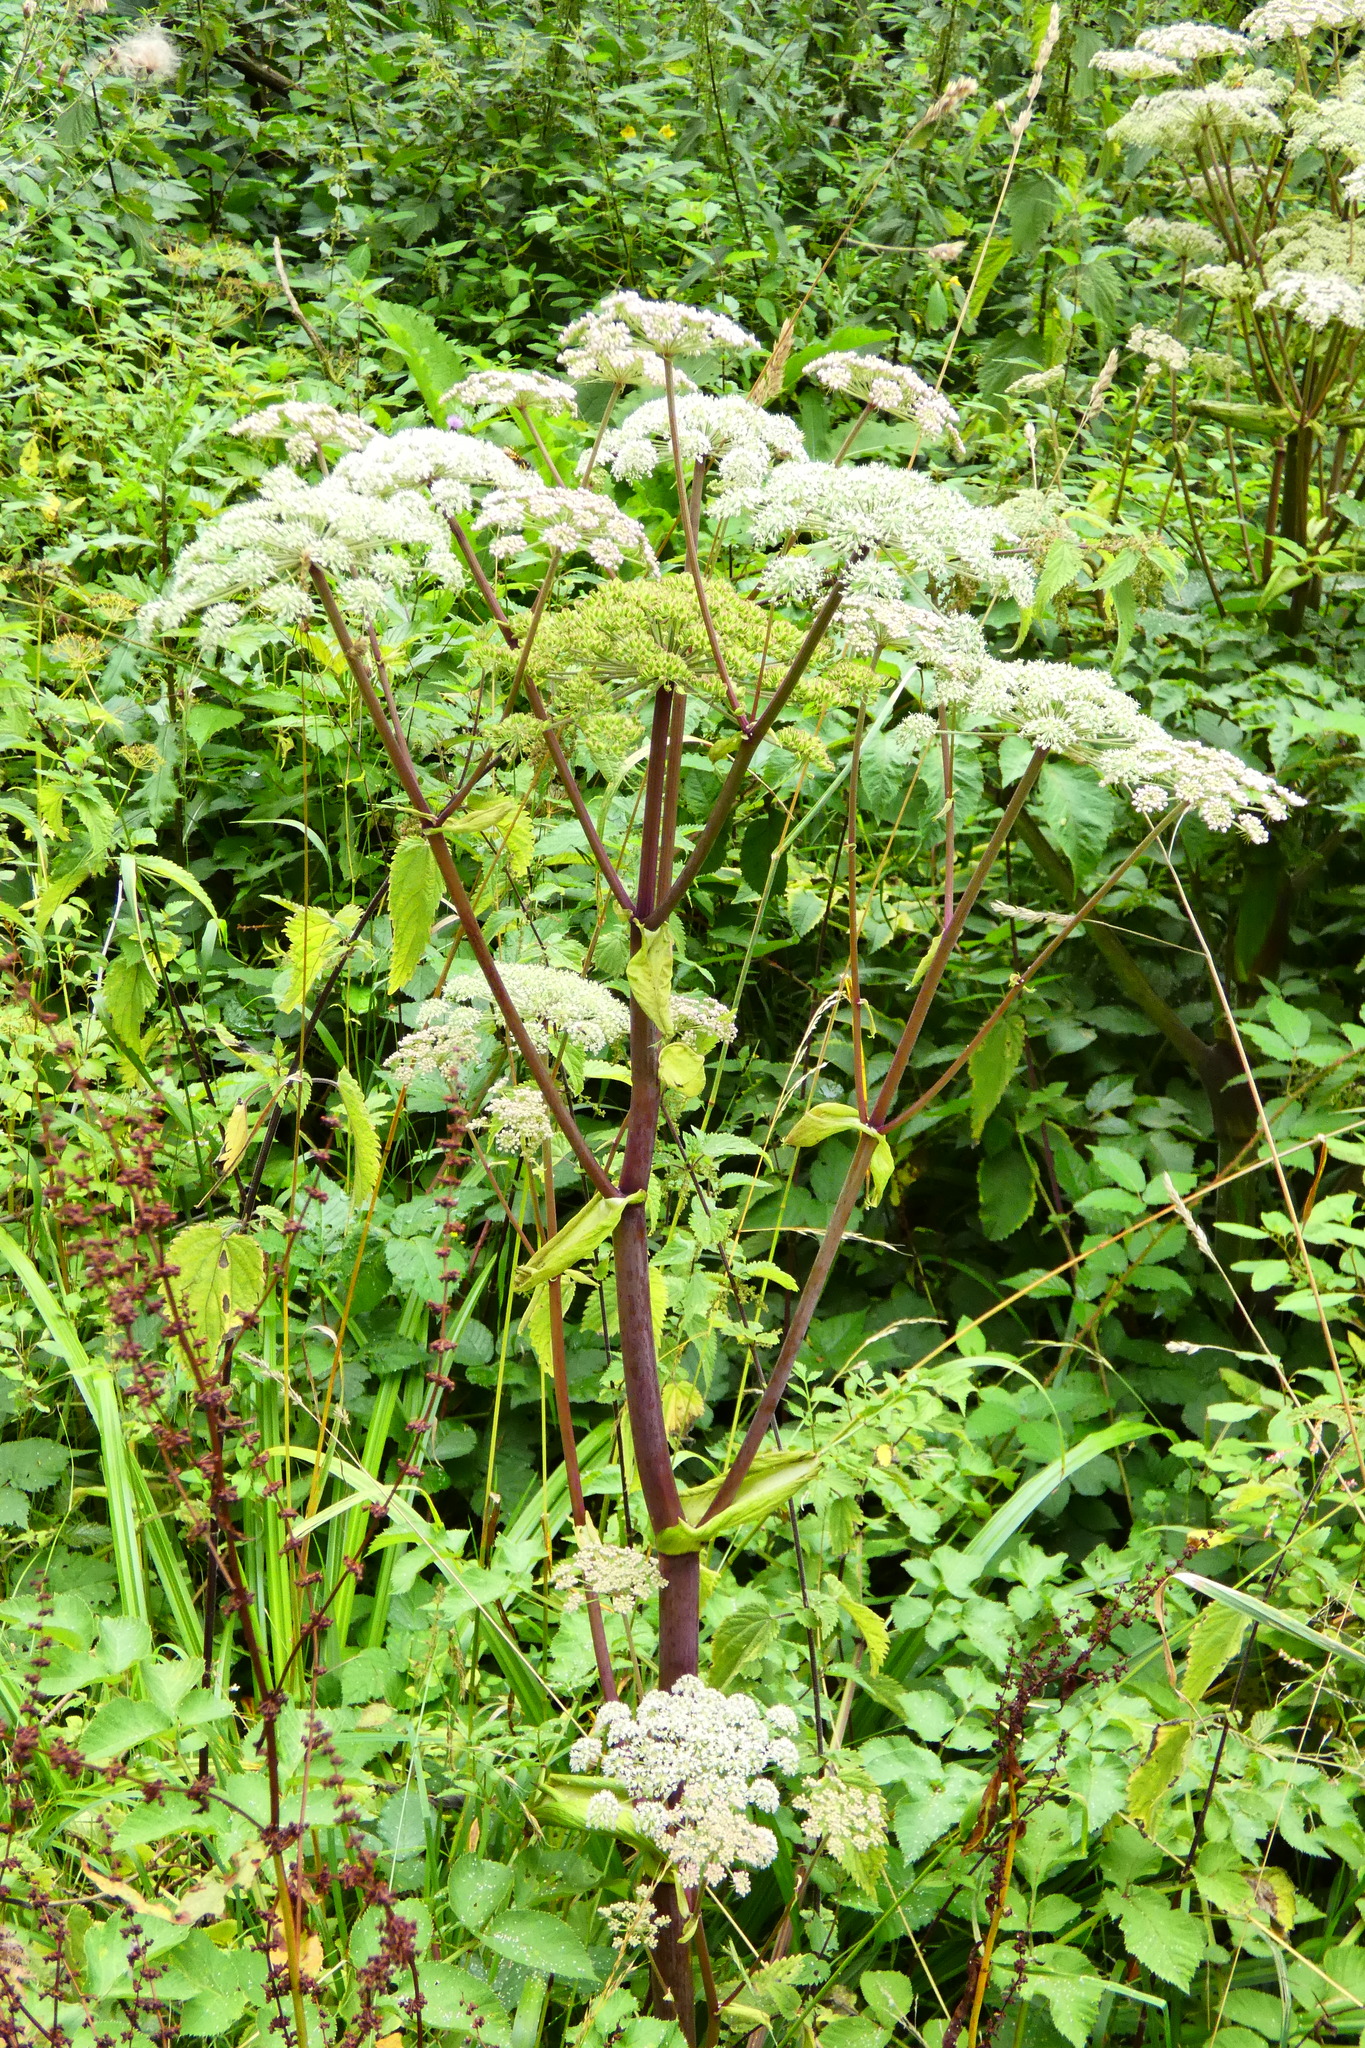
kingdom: Plantae
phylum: Tracheophyta
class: Magnoliopsida
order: Apiales
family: Apiaceae
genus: Angelica
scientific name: Angelica sylvestris
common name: Wild angelica
